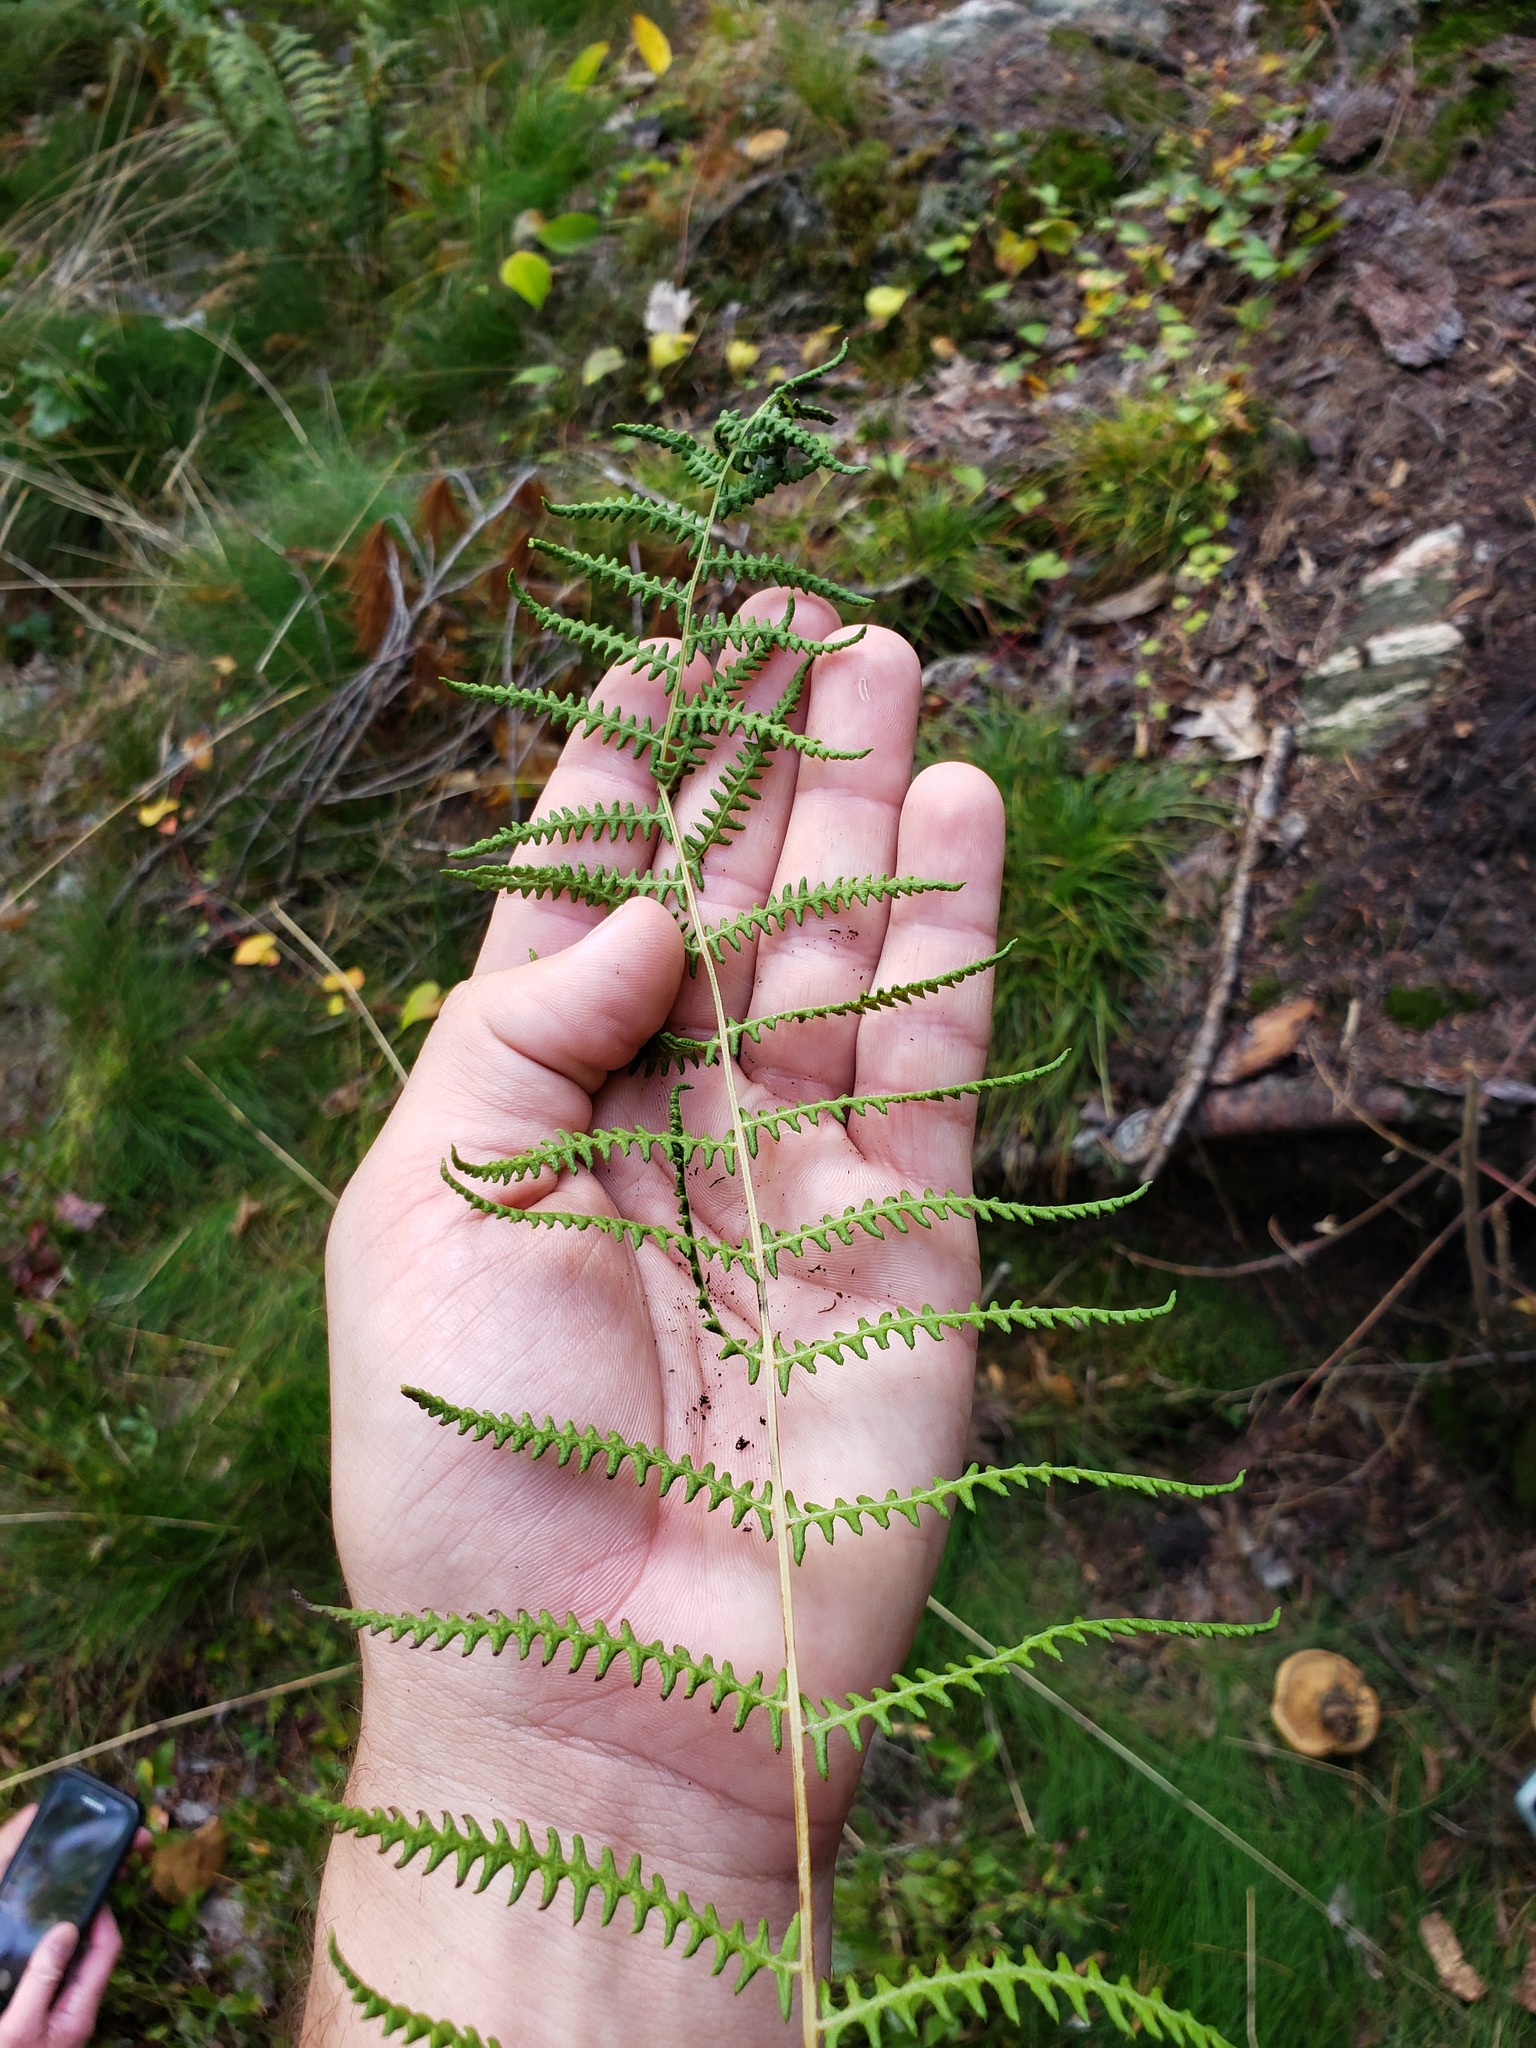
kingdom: Plantae
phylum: Tracheophyta
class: Polypodiopsida
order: Polypodiales
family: Thelypteridaceae
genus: Thelypteris
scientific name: Thelypteris palustris
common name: Marsh fern
